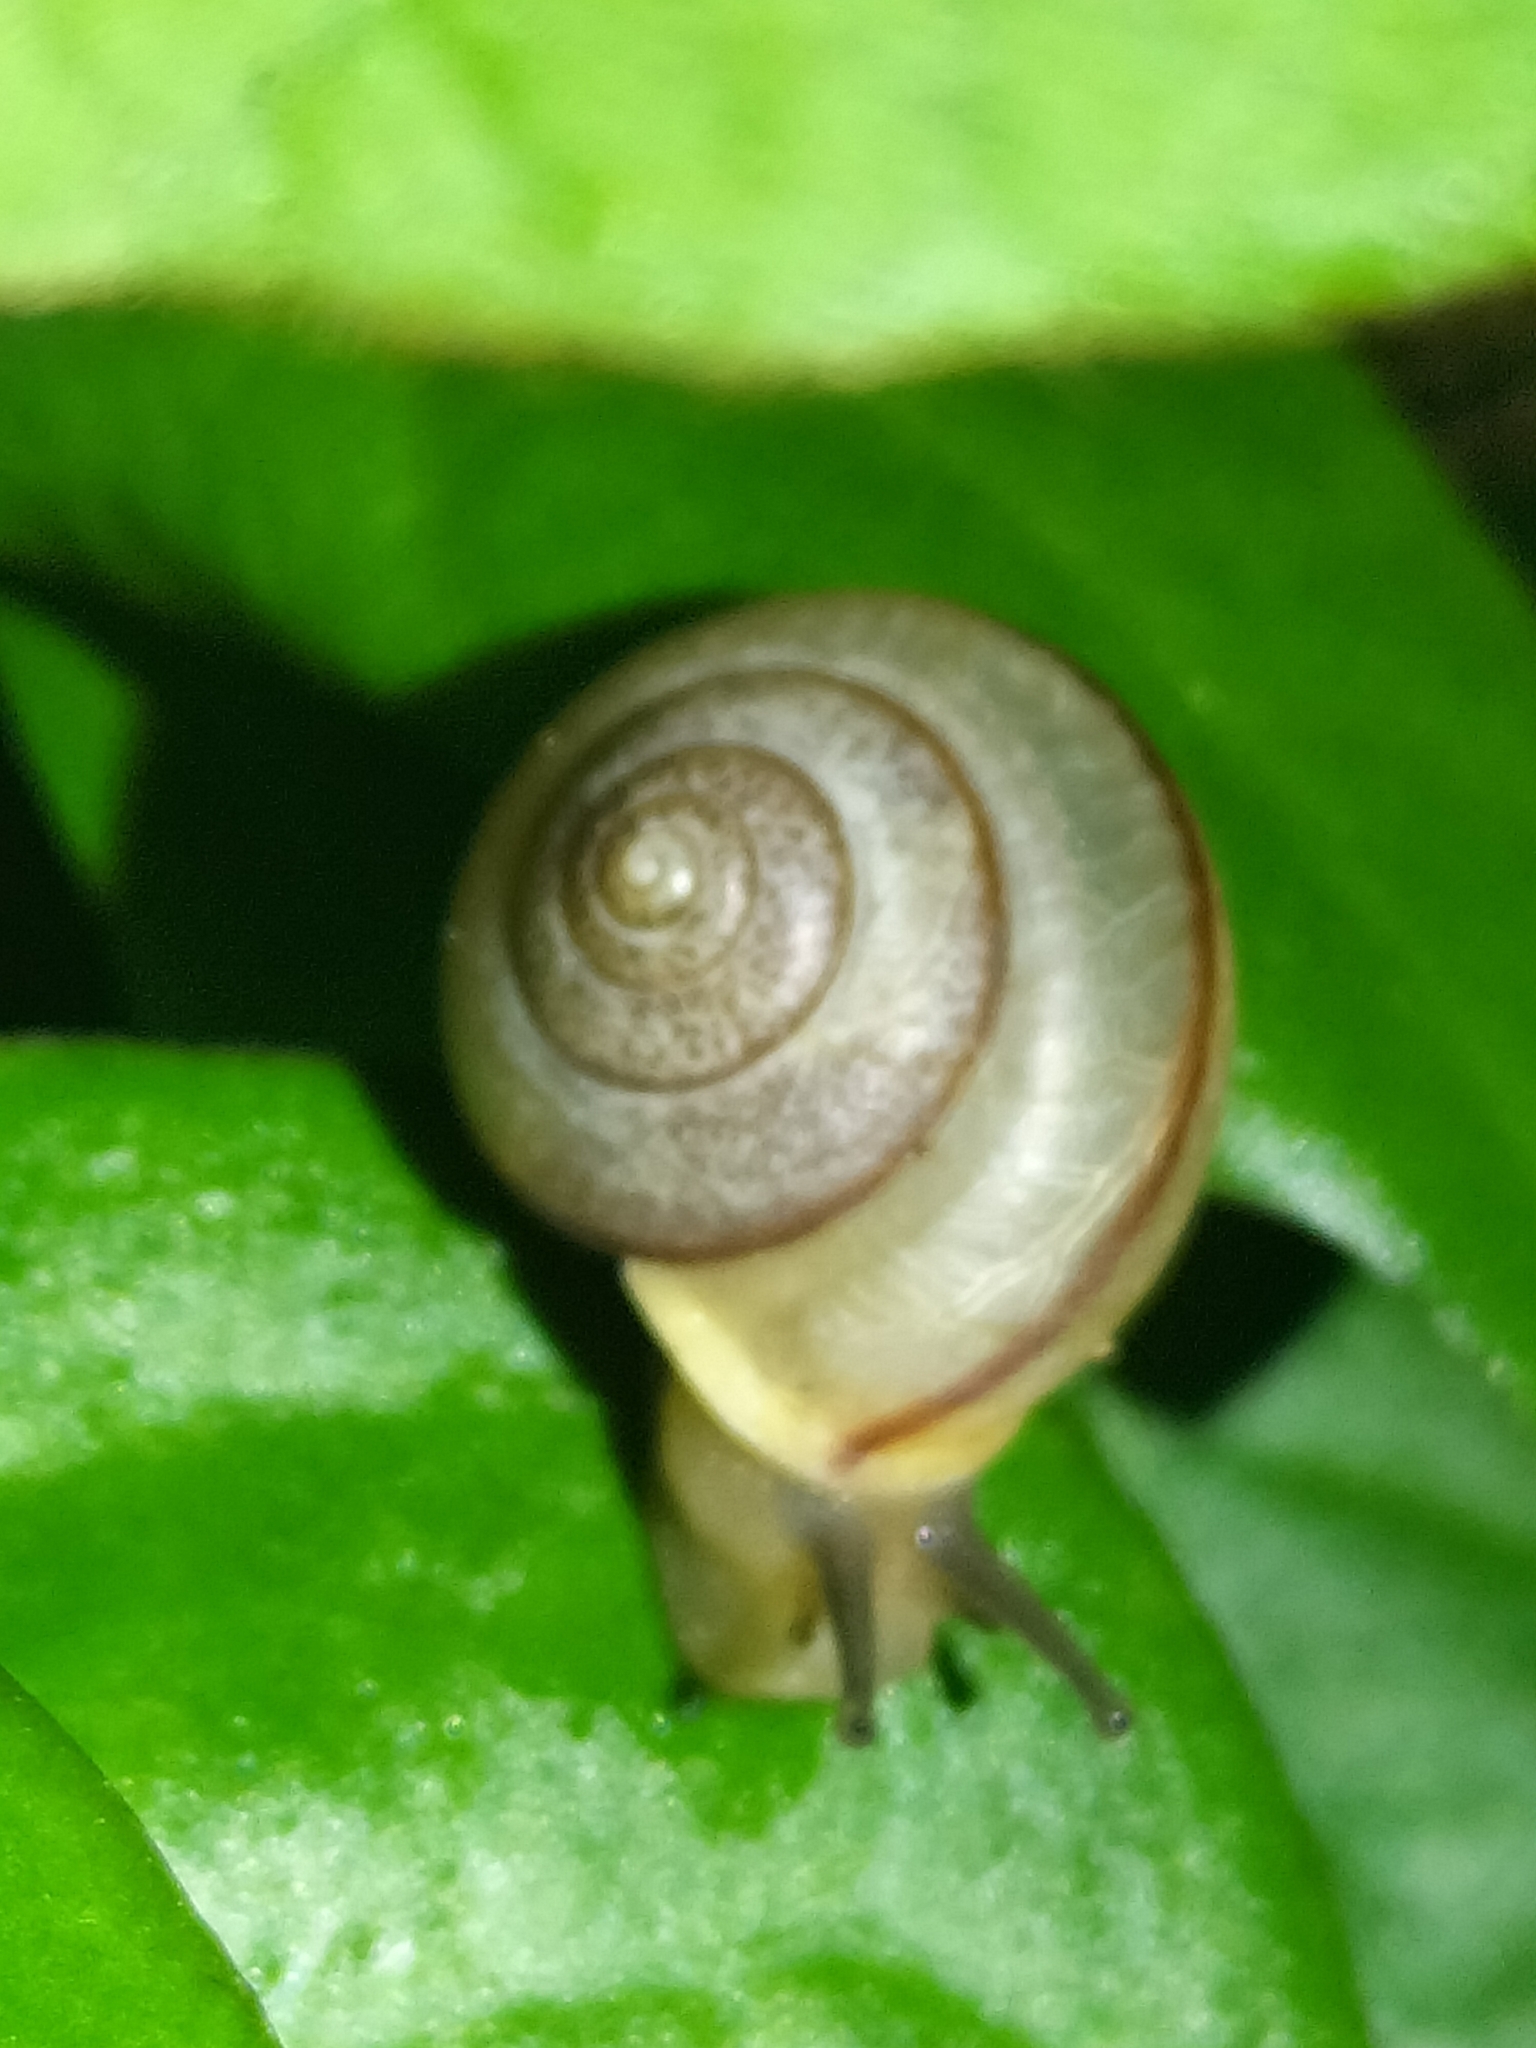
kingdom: Animalia
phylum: Mollusca
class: Gastropoda
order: Stylommatophora
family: Camaenidae
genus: Bradybaena
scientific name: Bradybaena similaris
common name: Asian trampsnail
